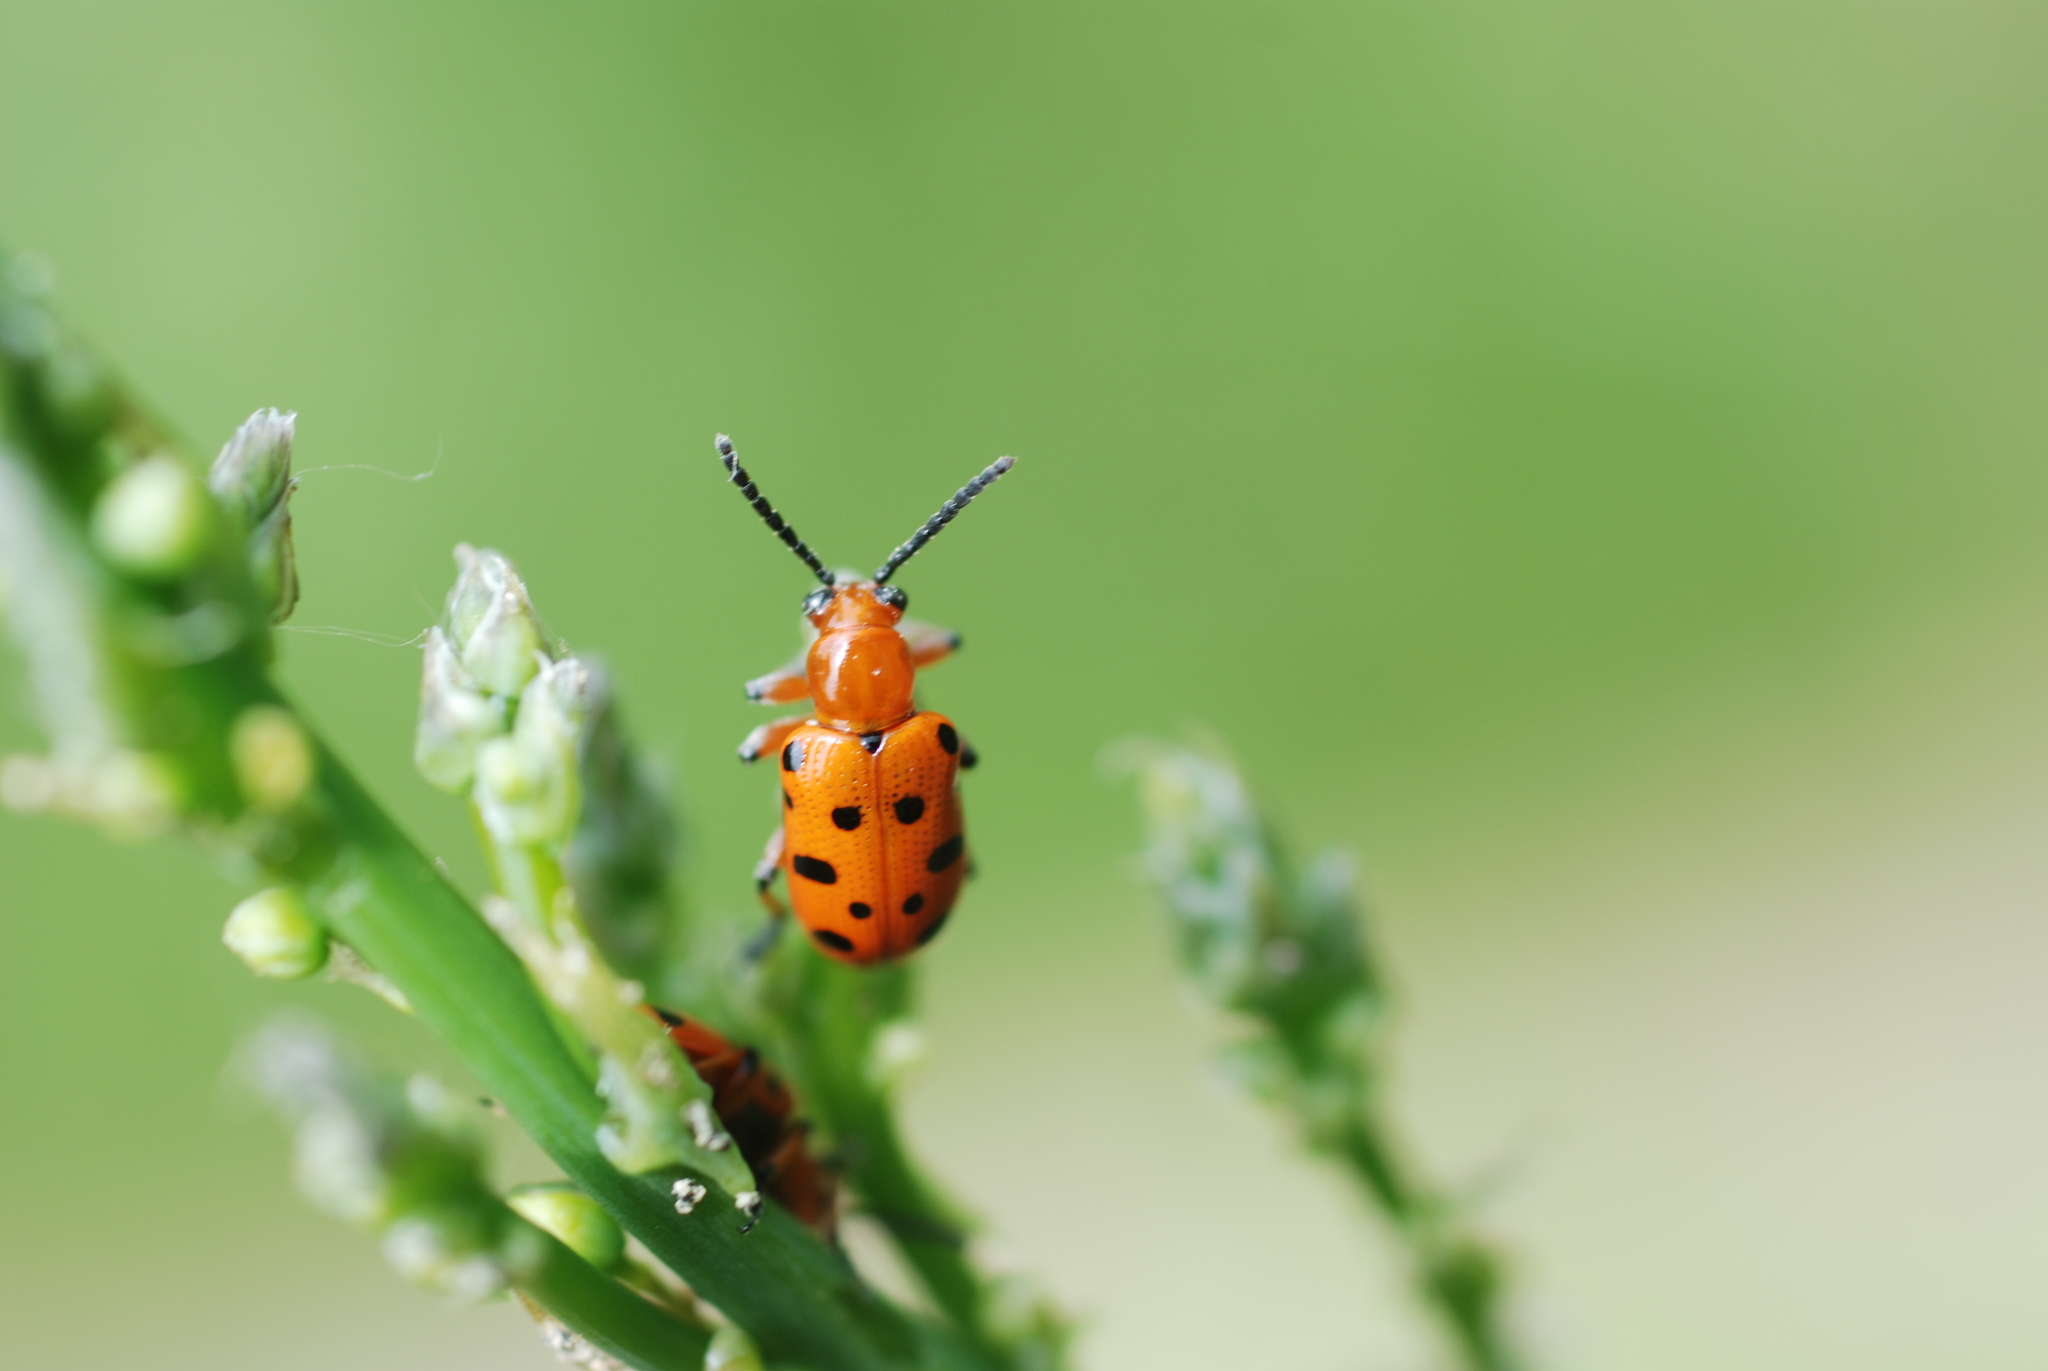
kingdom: Animalia
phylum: Arthropoda
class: Insecta
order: Coleoptera
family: Chrysomelidae
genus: Crioceris
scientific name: Crioceris duodecimpunctata
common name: Twelve-spotted asparagus beetle
